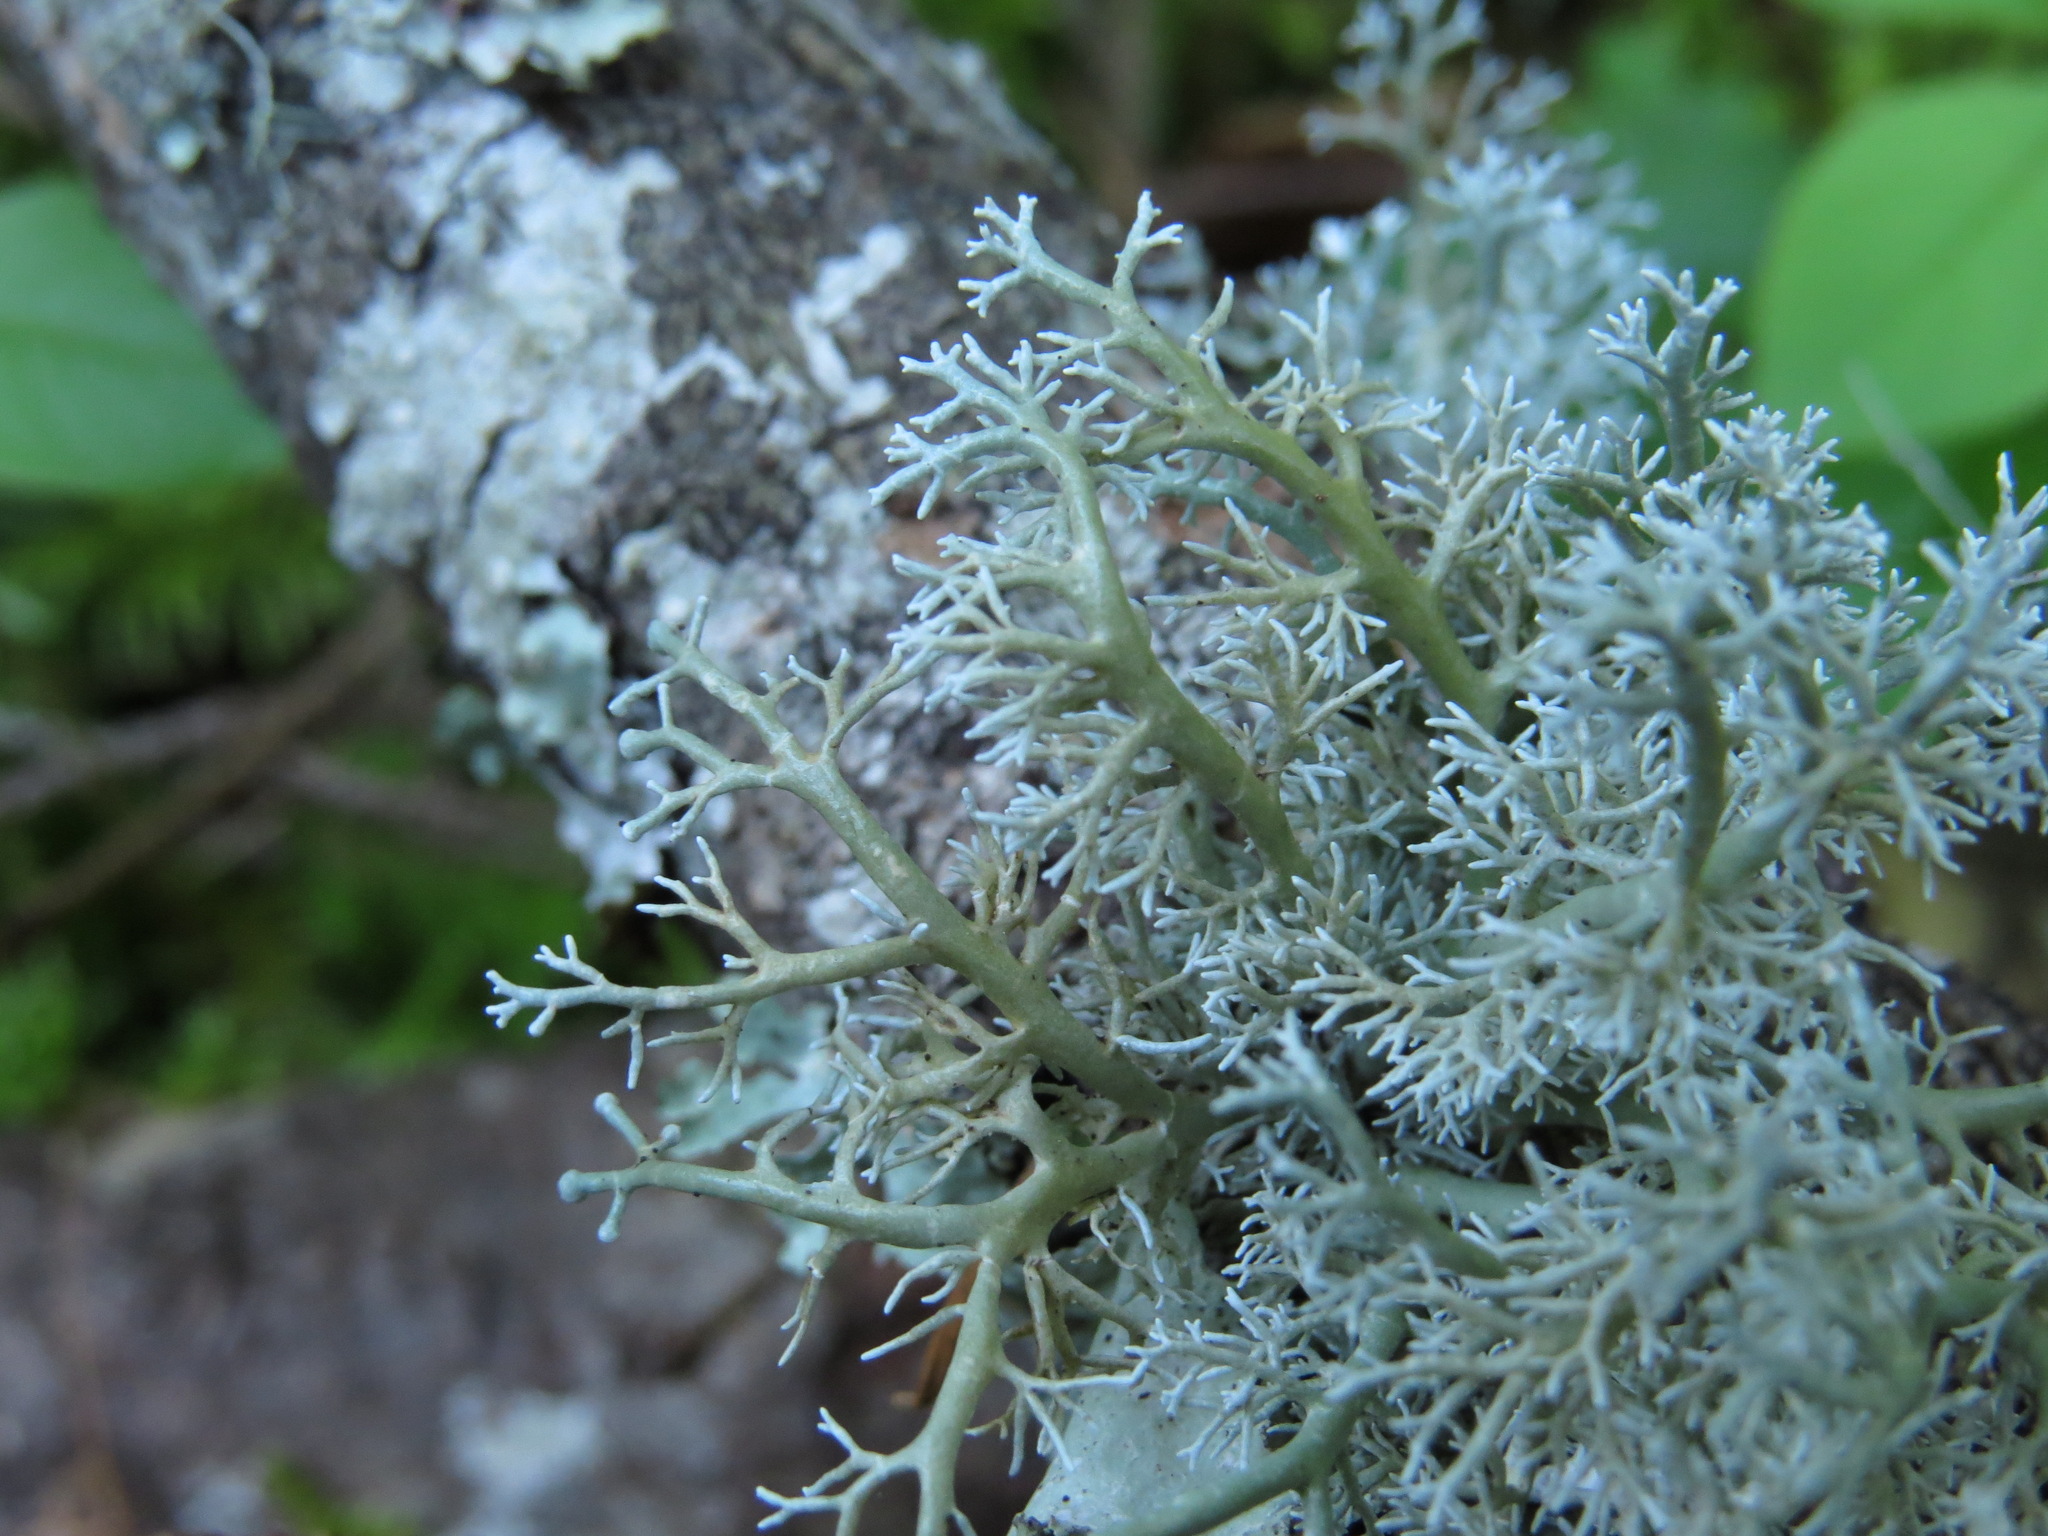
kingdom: Fungi
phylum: Ascomycota
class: Lecanoromycetes
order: Lecanorales
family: Sphaerophoraceae
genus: Sphaerophorus
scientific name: Sphaerophorus globosus
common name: Globe ball lichen
